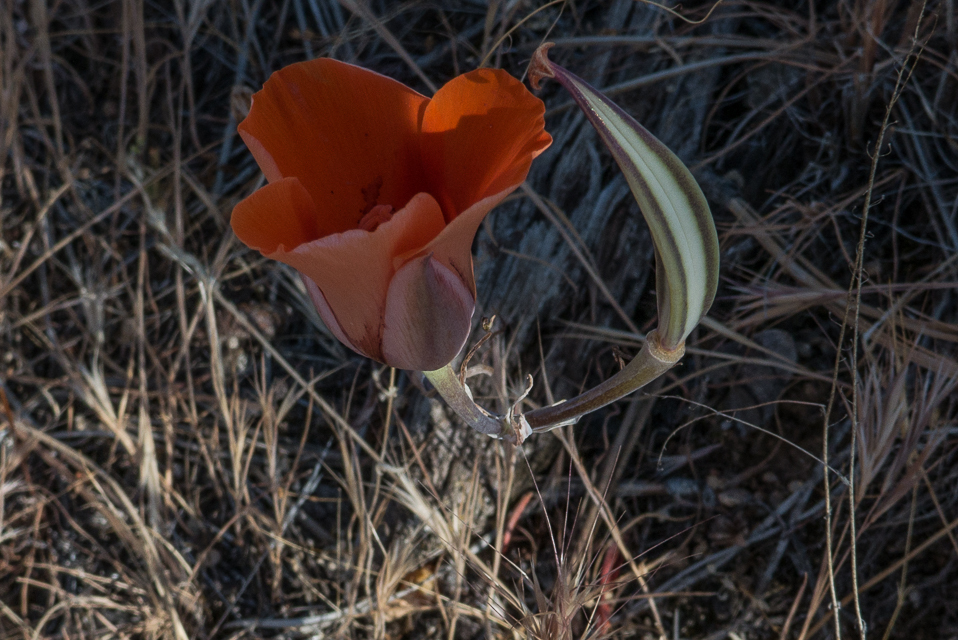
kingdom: Plantae
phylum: Tracheophyta
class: Liliopsida
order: Liliales
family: Liliaceae
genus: Calochortus
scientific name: Calochortus kennedyi
